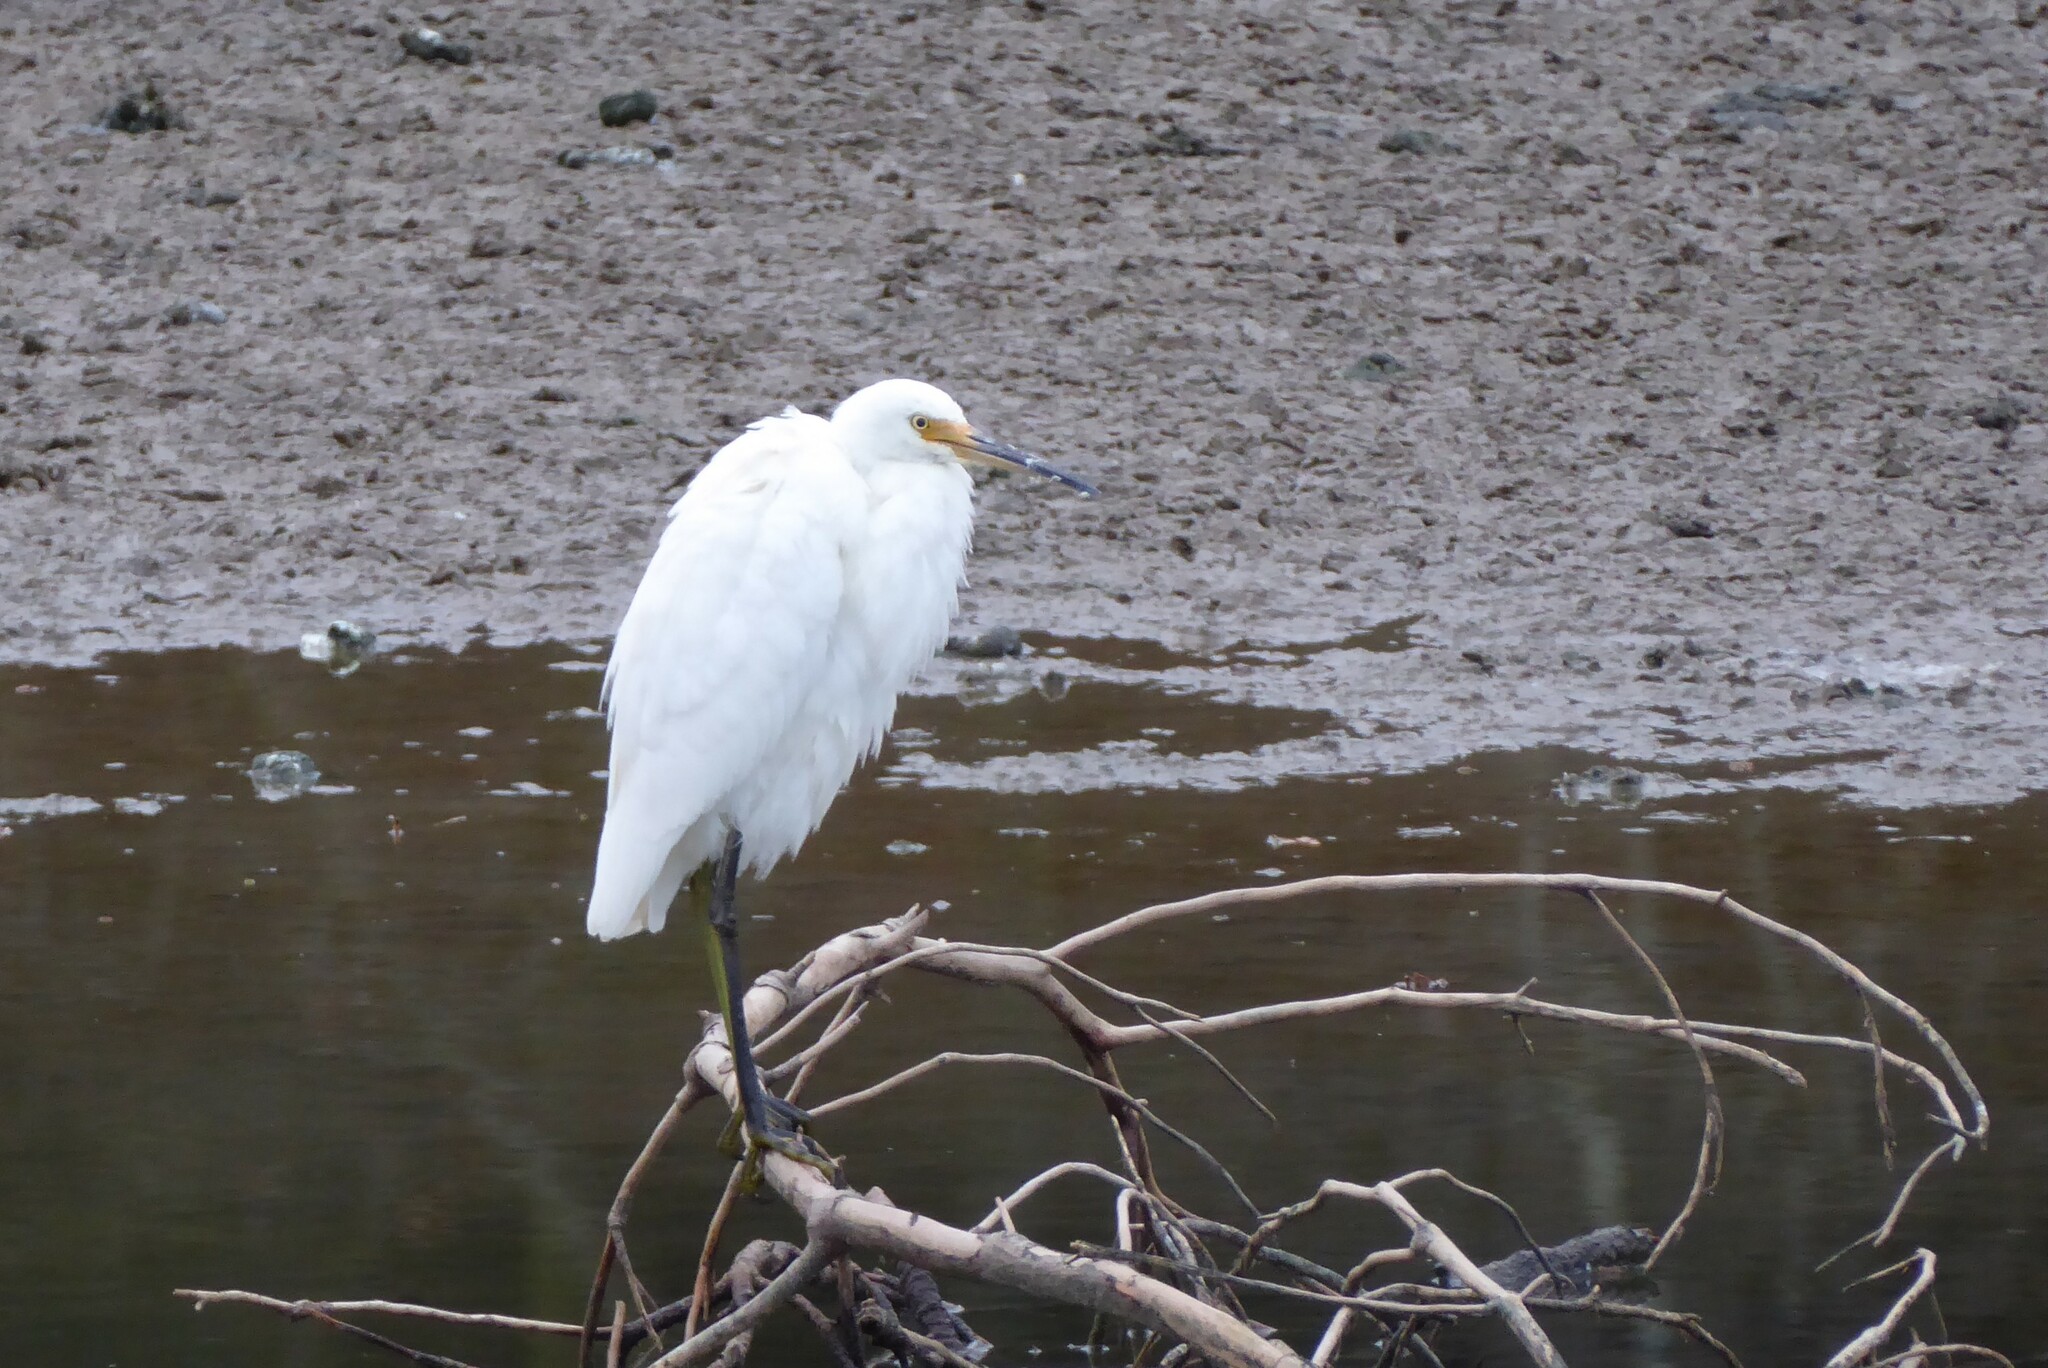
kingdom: Animalia
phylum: Chordata
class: Aves
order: Pelecaniformes
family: Ardeidae
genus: Egretta
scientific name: Egretta garzetta
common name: Little egret
